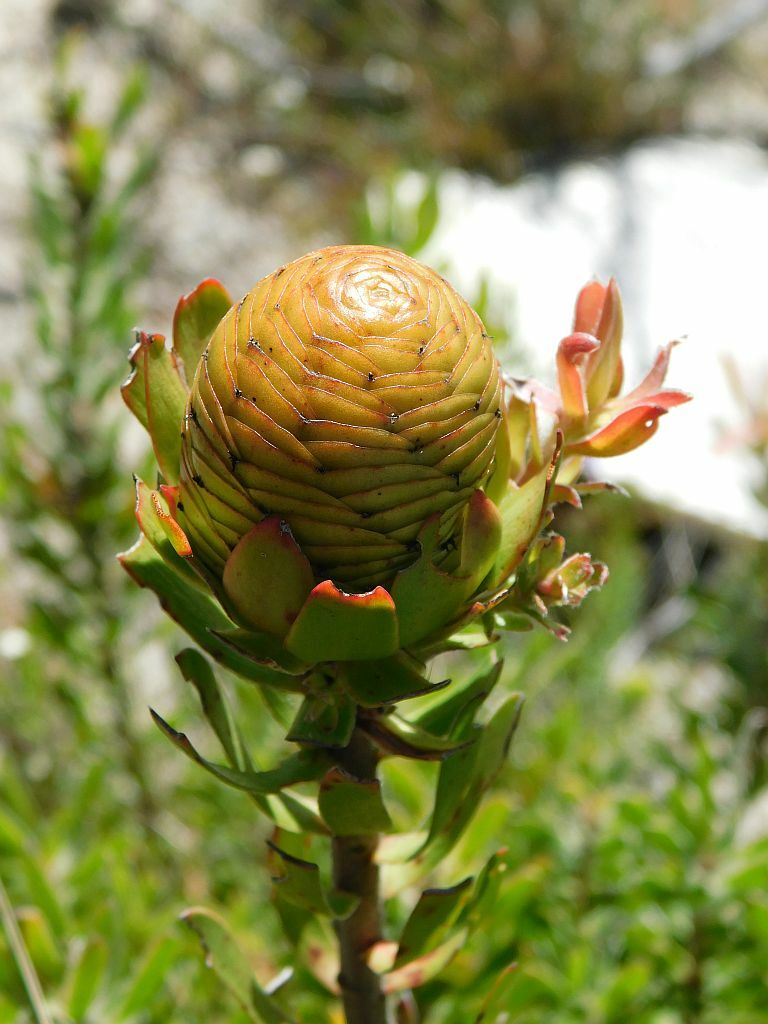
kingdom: Plantae
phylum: Tracheophyta
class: Magnoliopsida
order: Proteales
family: Proteaceae
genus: Leucadendron
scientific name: Leucadendron spissifolium
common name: Spear-leaf conebush
